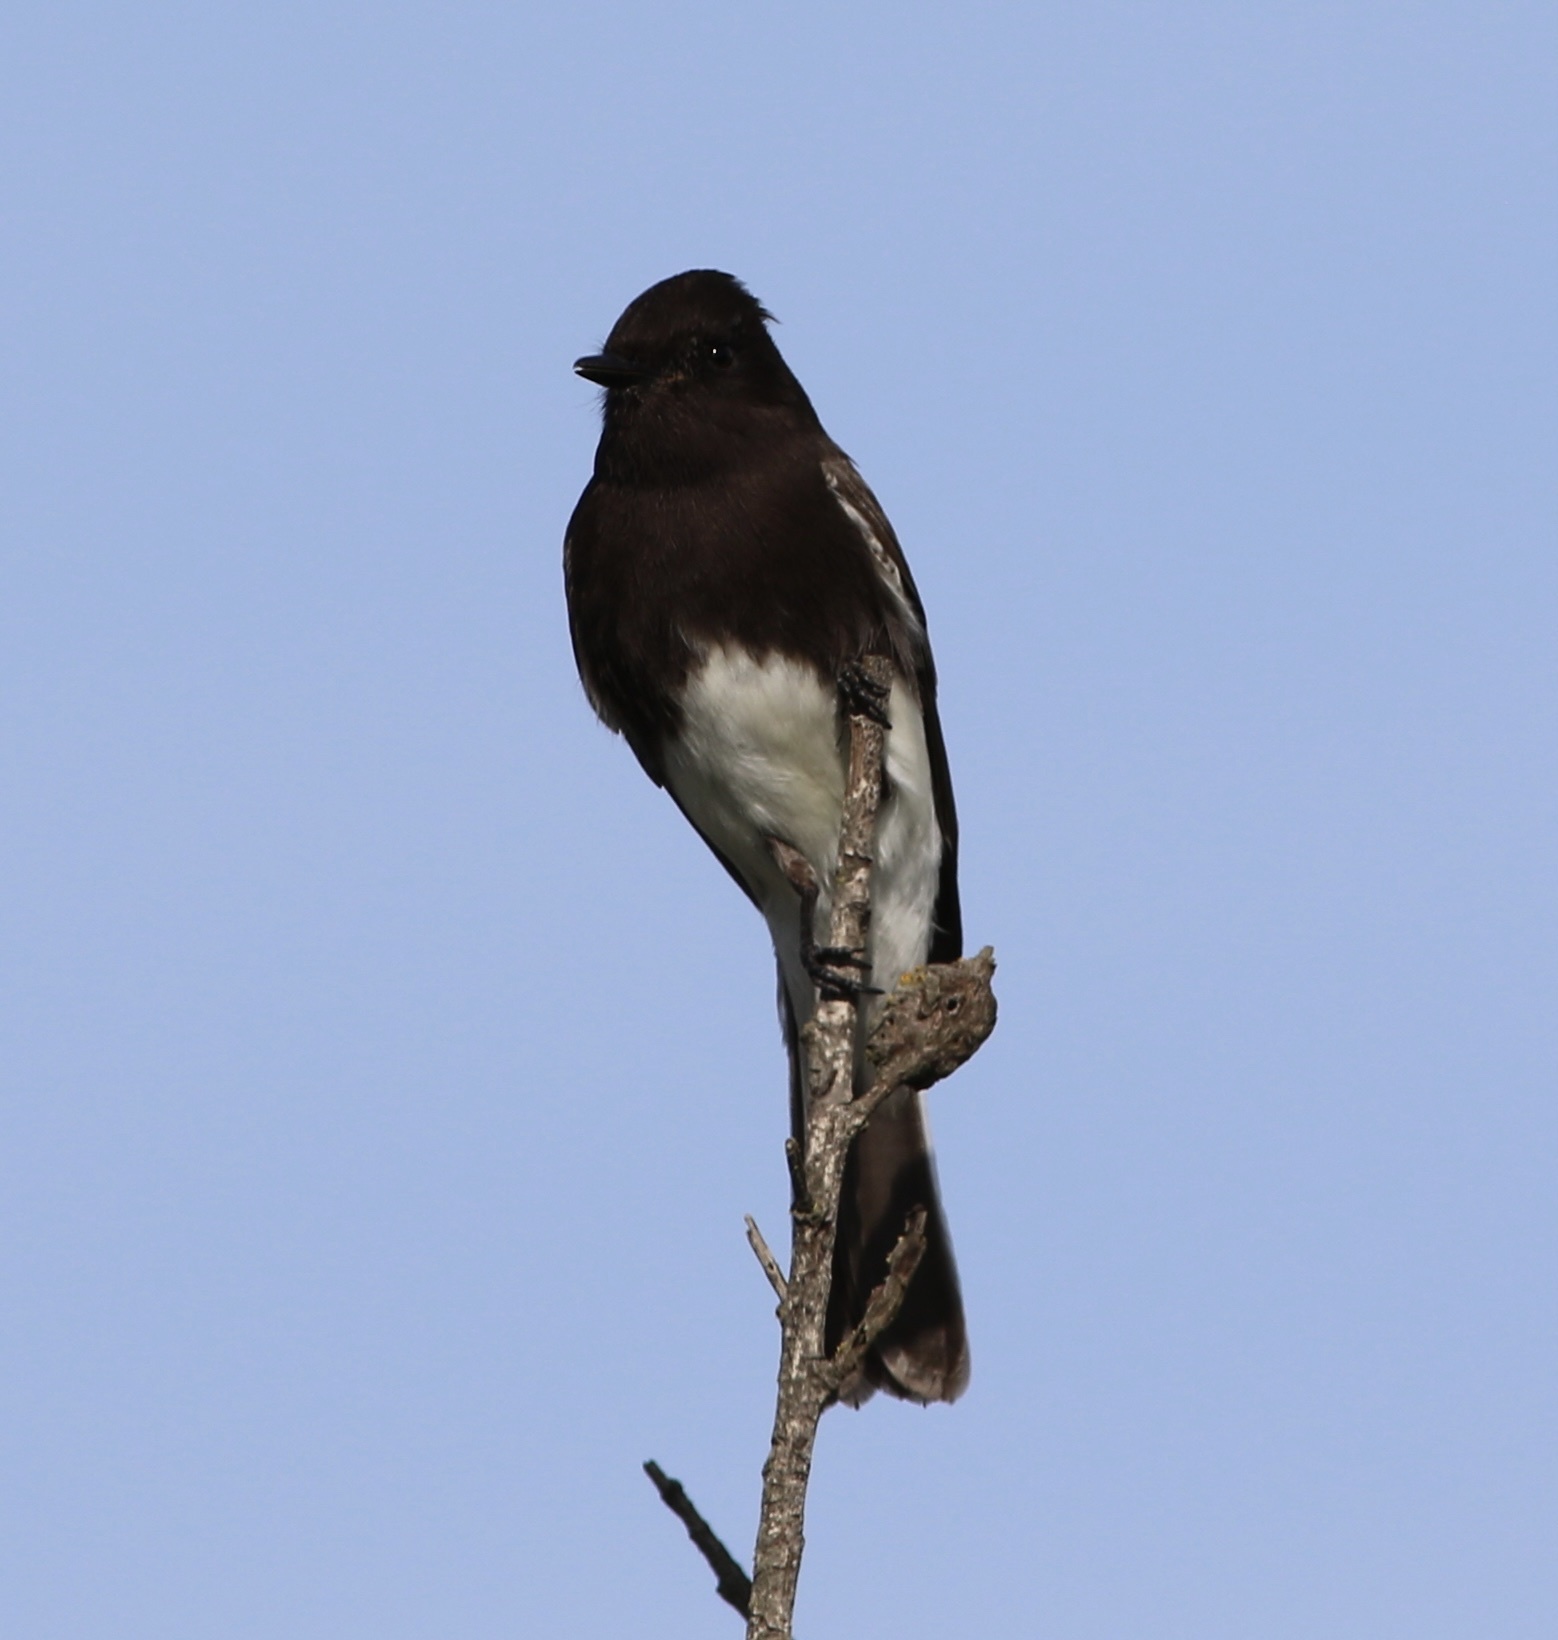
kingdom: Animalia
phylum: Chordata
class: Aves
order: Passeriformes
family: Tyrannidae
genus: Sayornis
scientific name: Sayornis nigricans
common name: Black phoebe
